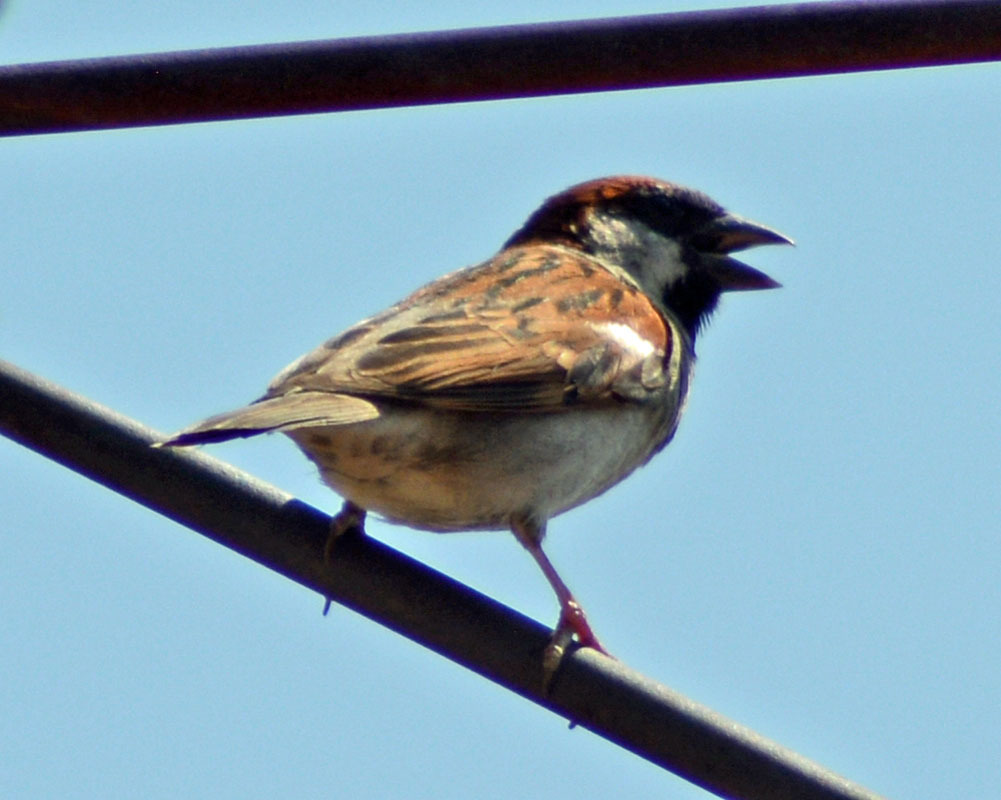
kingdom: Animalia
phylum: Chordata
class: Aves
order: Passeriformes
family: Passeridae
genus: Passer
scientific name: Passer domesticus
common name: House sparrow
